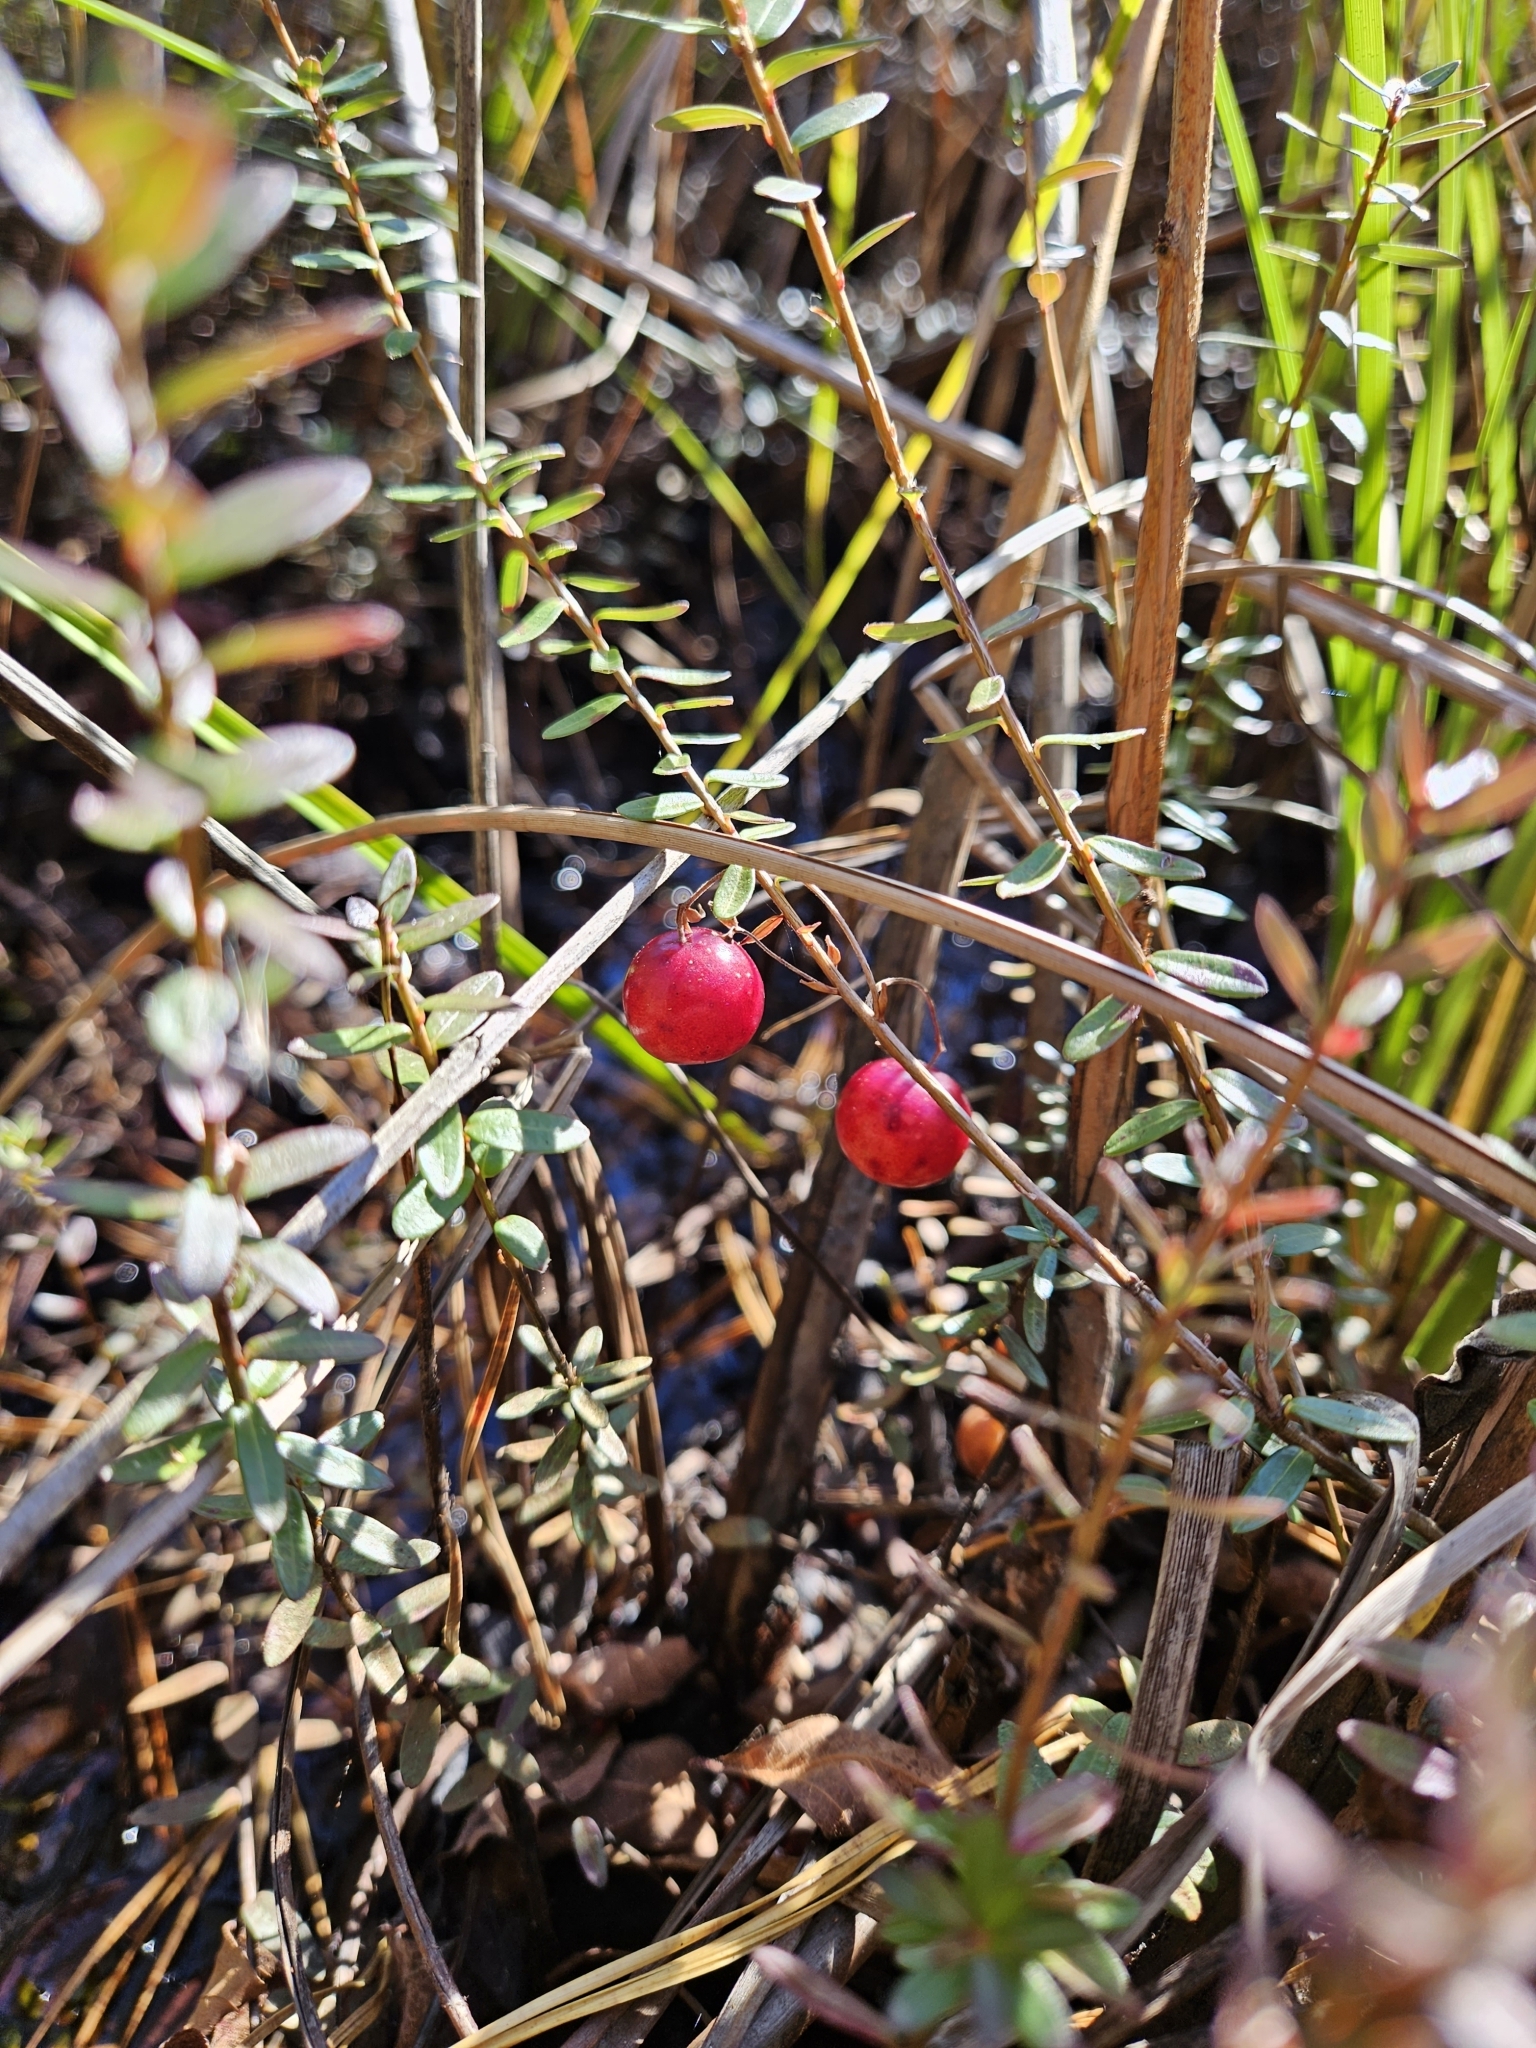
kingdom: Plantae
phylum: Tracheophyta
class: Magnoliopsida
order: Ericales
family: Ericaceae
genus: Vaccinium
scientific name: Vaccinium macrocarpon
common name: American cranberry
